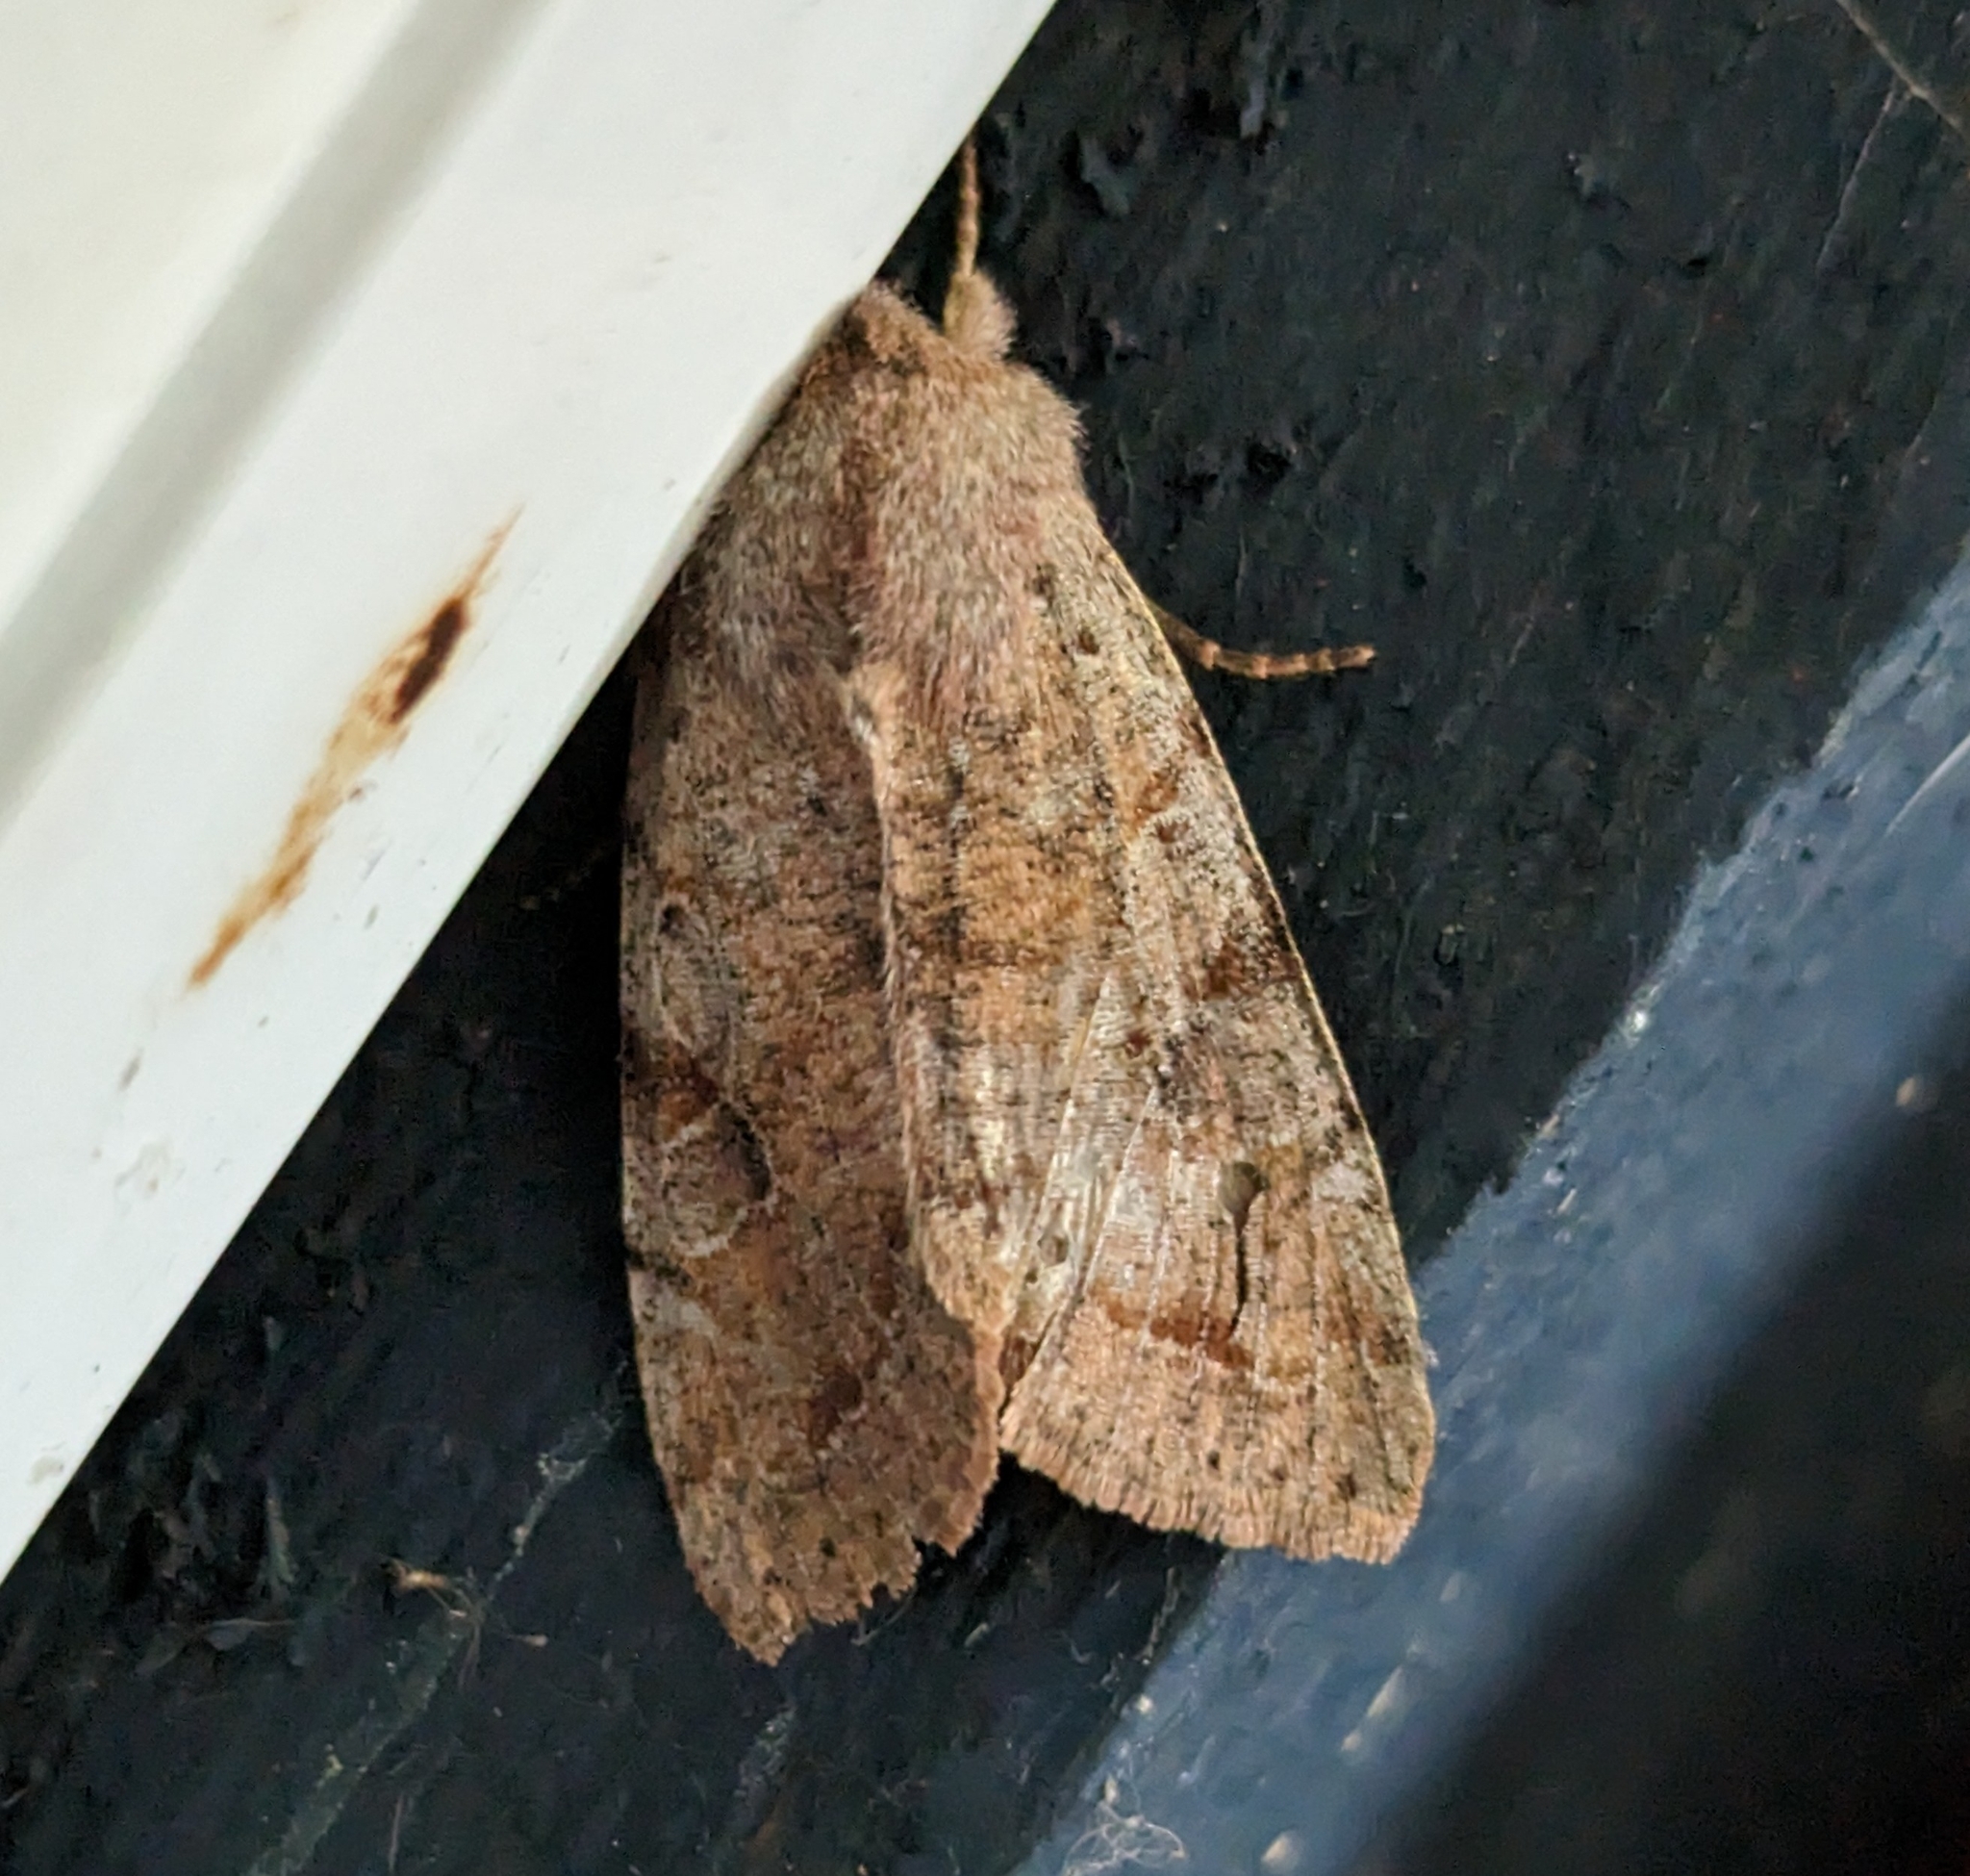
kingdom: Animalia
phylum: Arthropoda
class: Insecta
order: Lepidoptera
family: Noctuidae
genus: Orthosia
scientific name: Orthosia hibisci
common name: Green fruitworm
